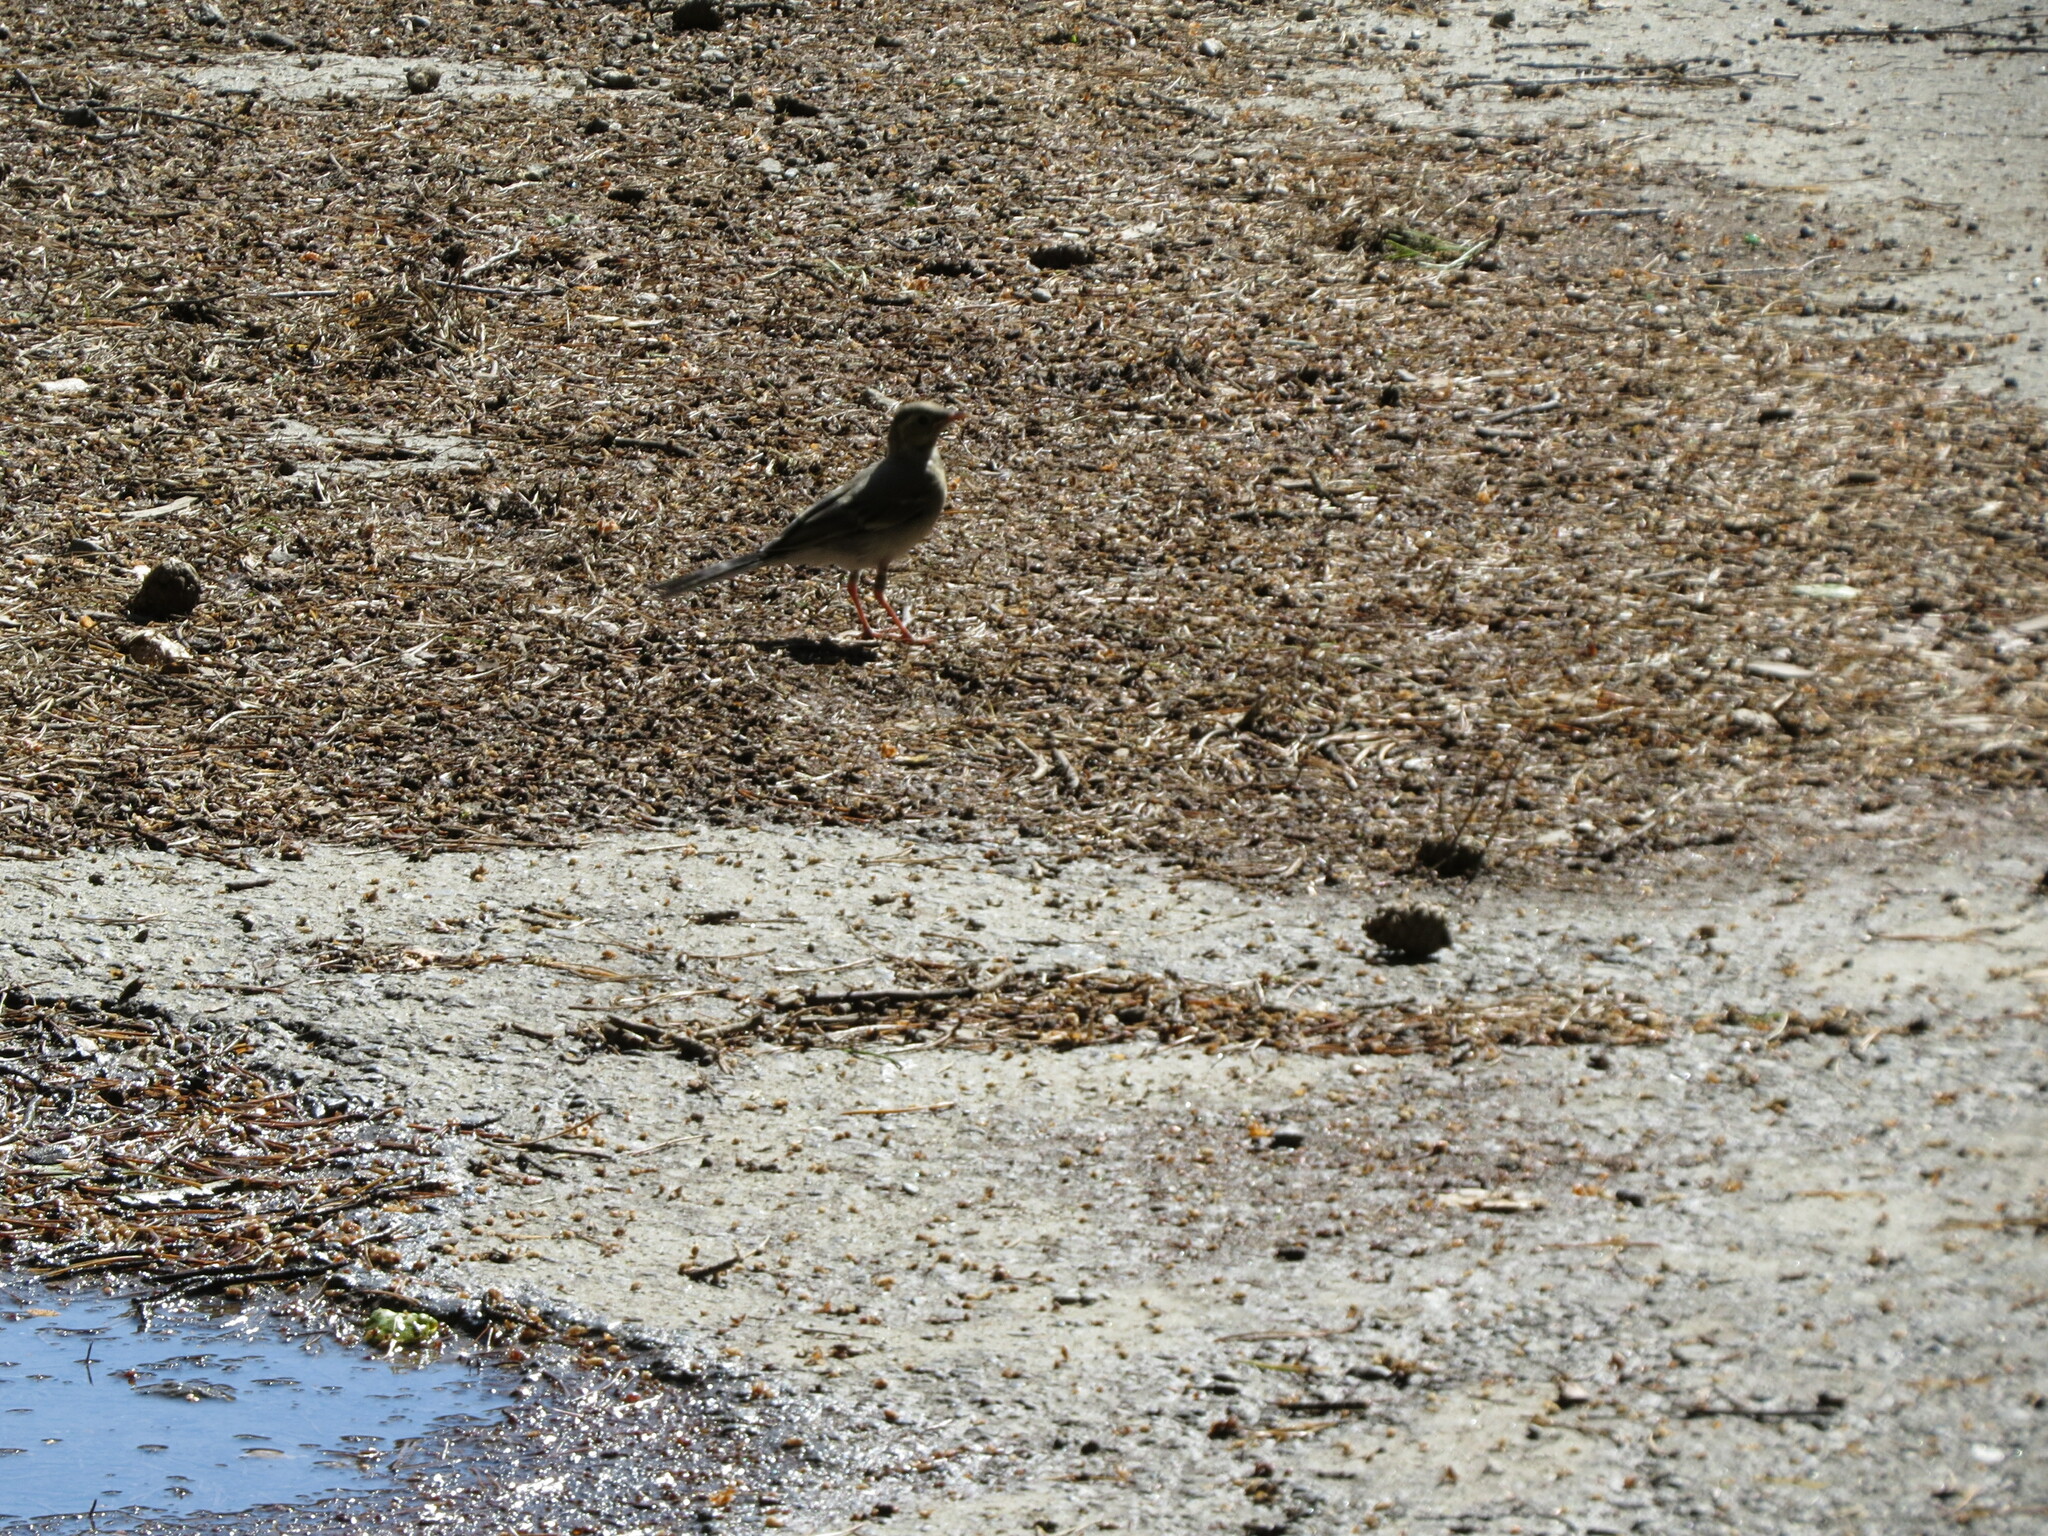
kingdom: Animalia
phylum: Chordata
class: Aves
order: Passeriformes
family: Motacillidae
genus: Motacilla
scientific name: Motacilla alba
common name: White wagtail
